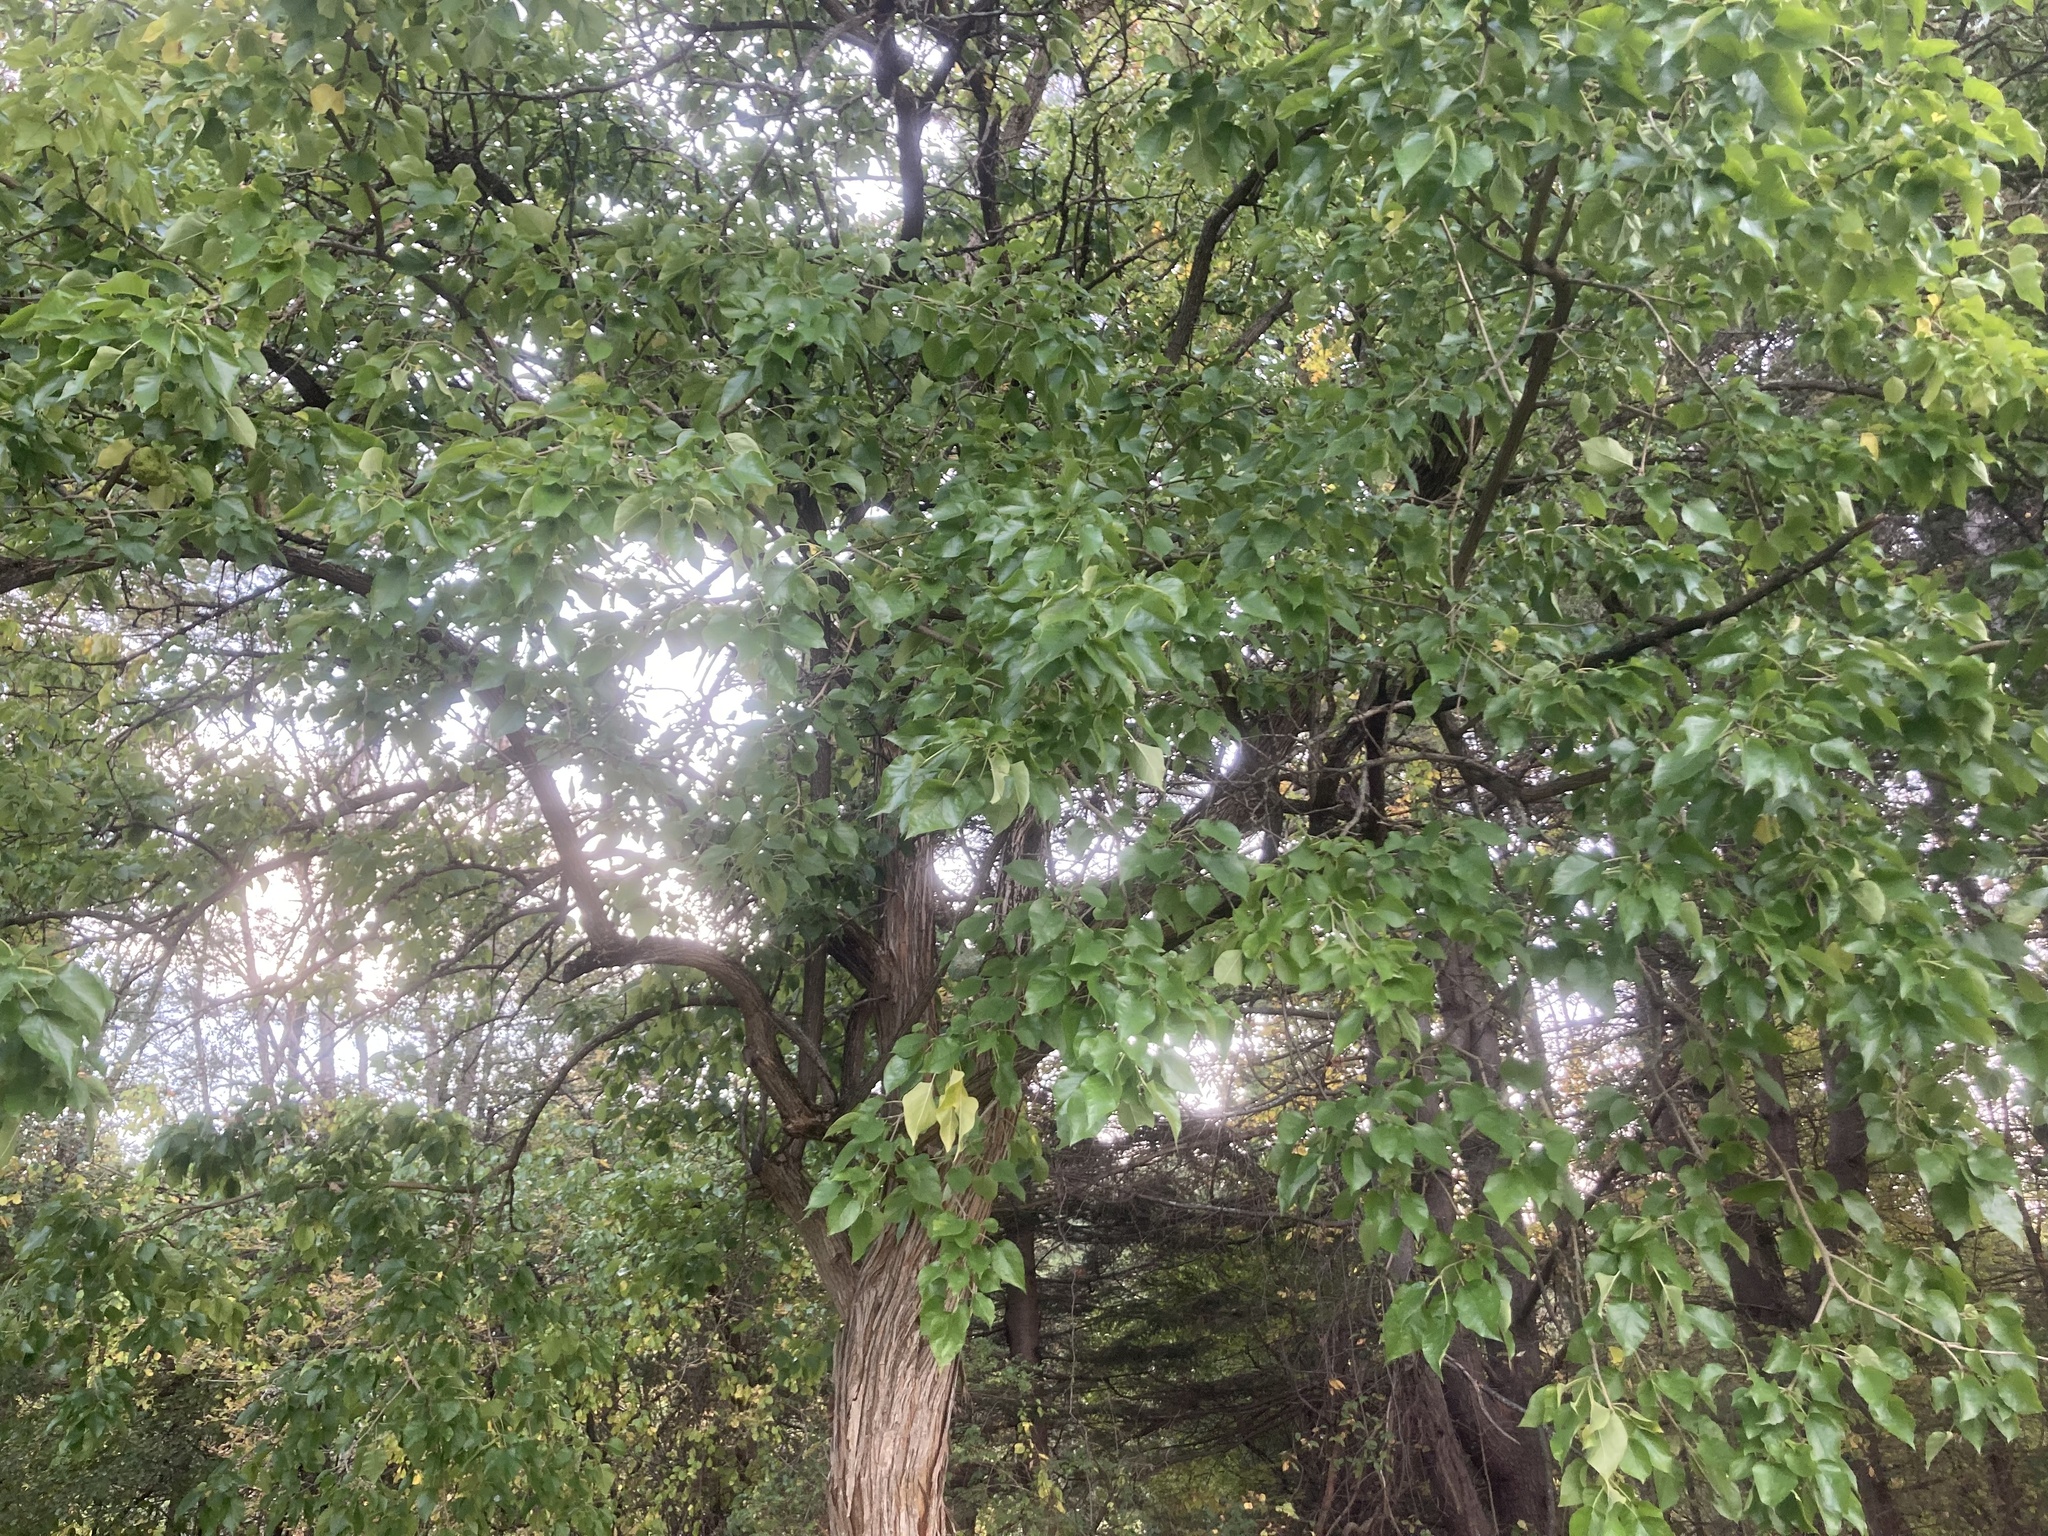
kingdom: Plantae
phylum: Tracheophyta
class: Magnoliopsida
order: Rosales
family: Moraceae
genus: Maclura
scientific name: Maclura pomifera
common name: Osage-orange
